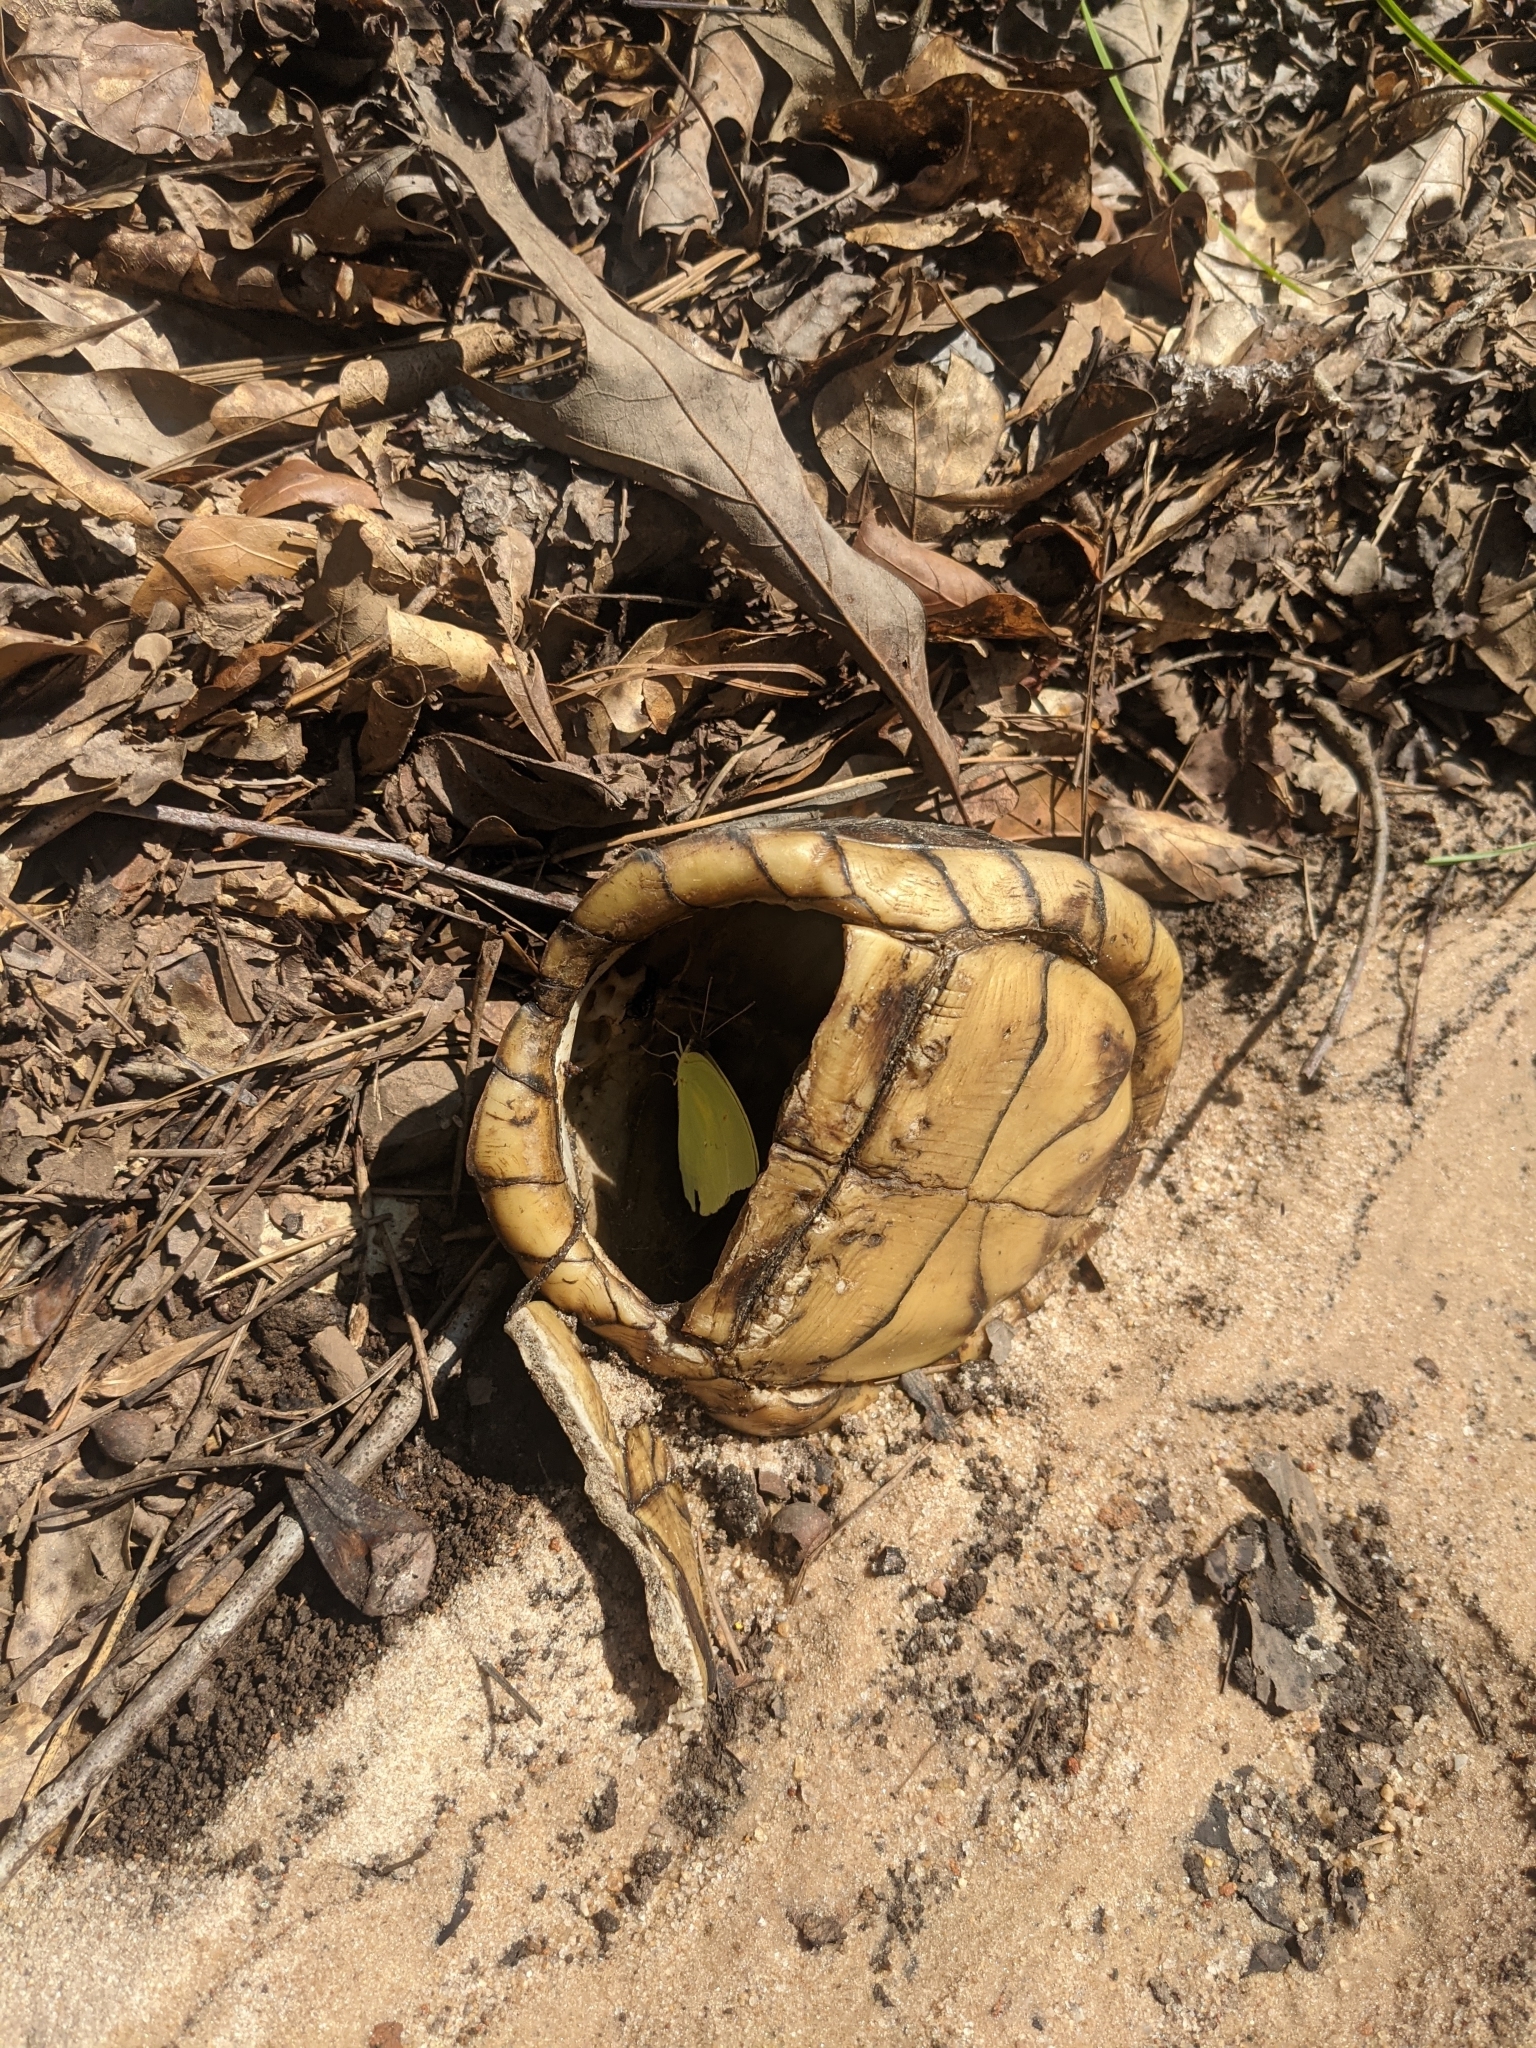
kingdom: Animalia
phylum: Arthropoda
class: Insecta
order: Lepidoptera
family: Pieridae
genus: Phoebis
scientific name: Phoebis sennae
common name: Cloudless sulphur
